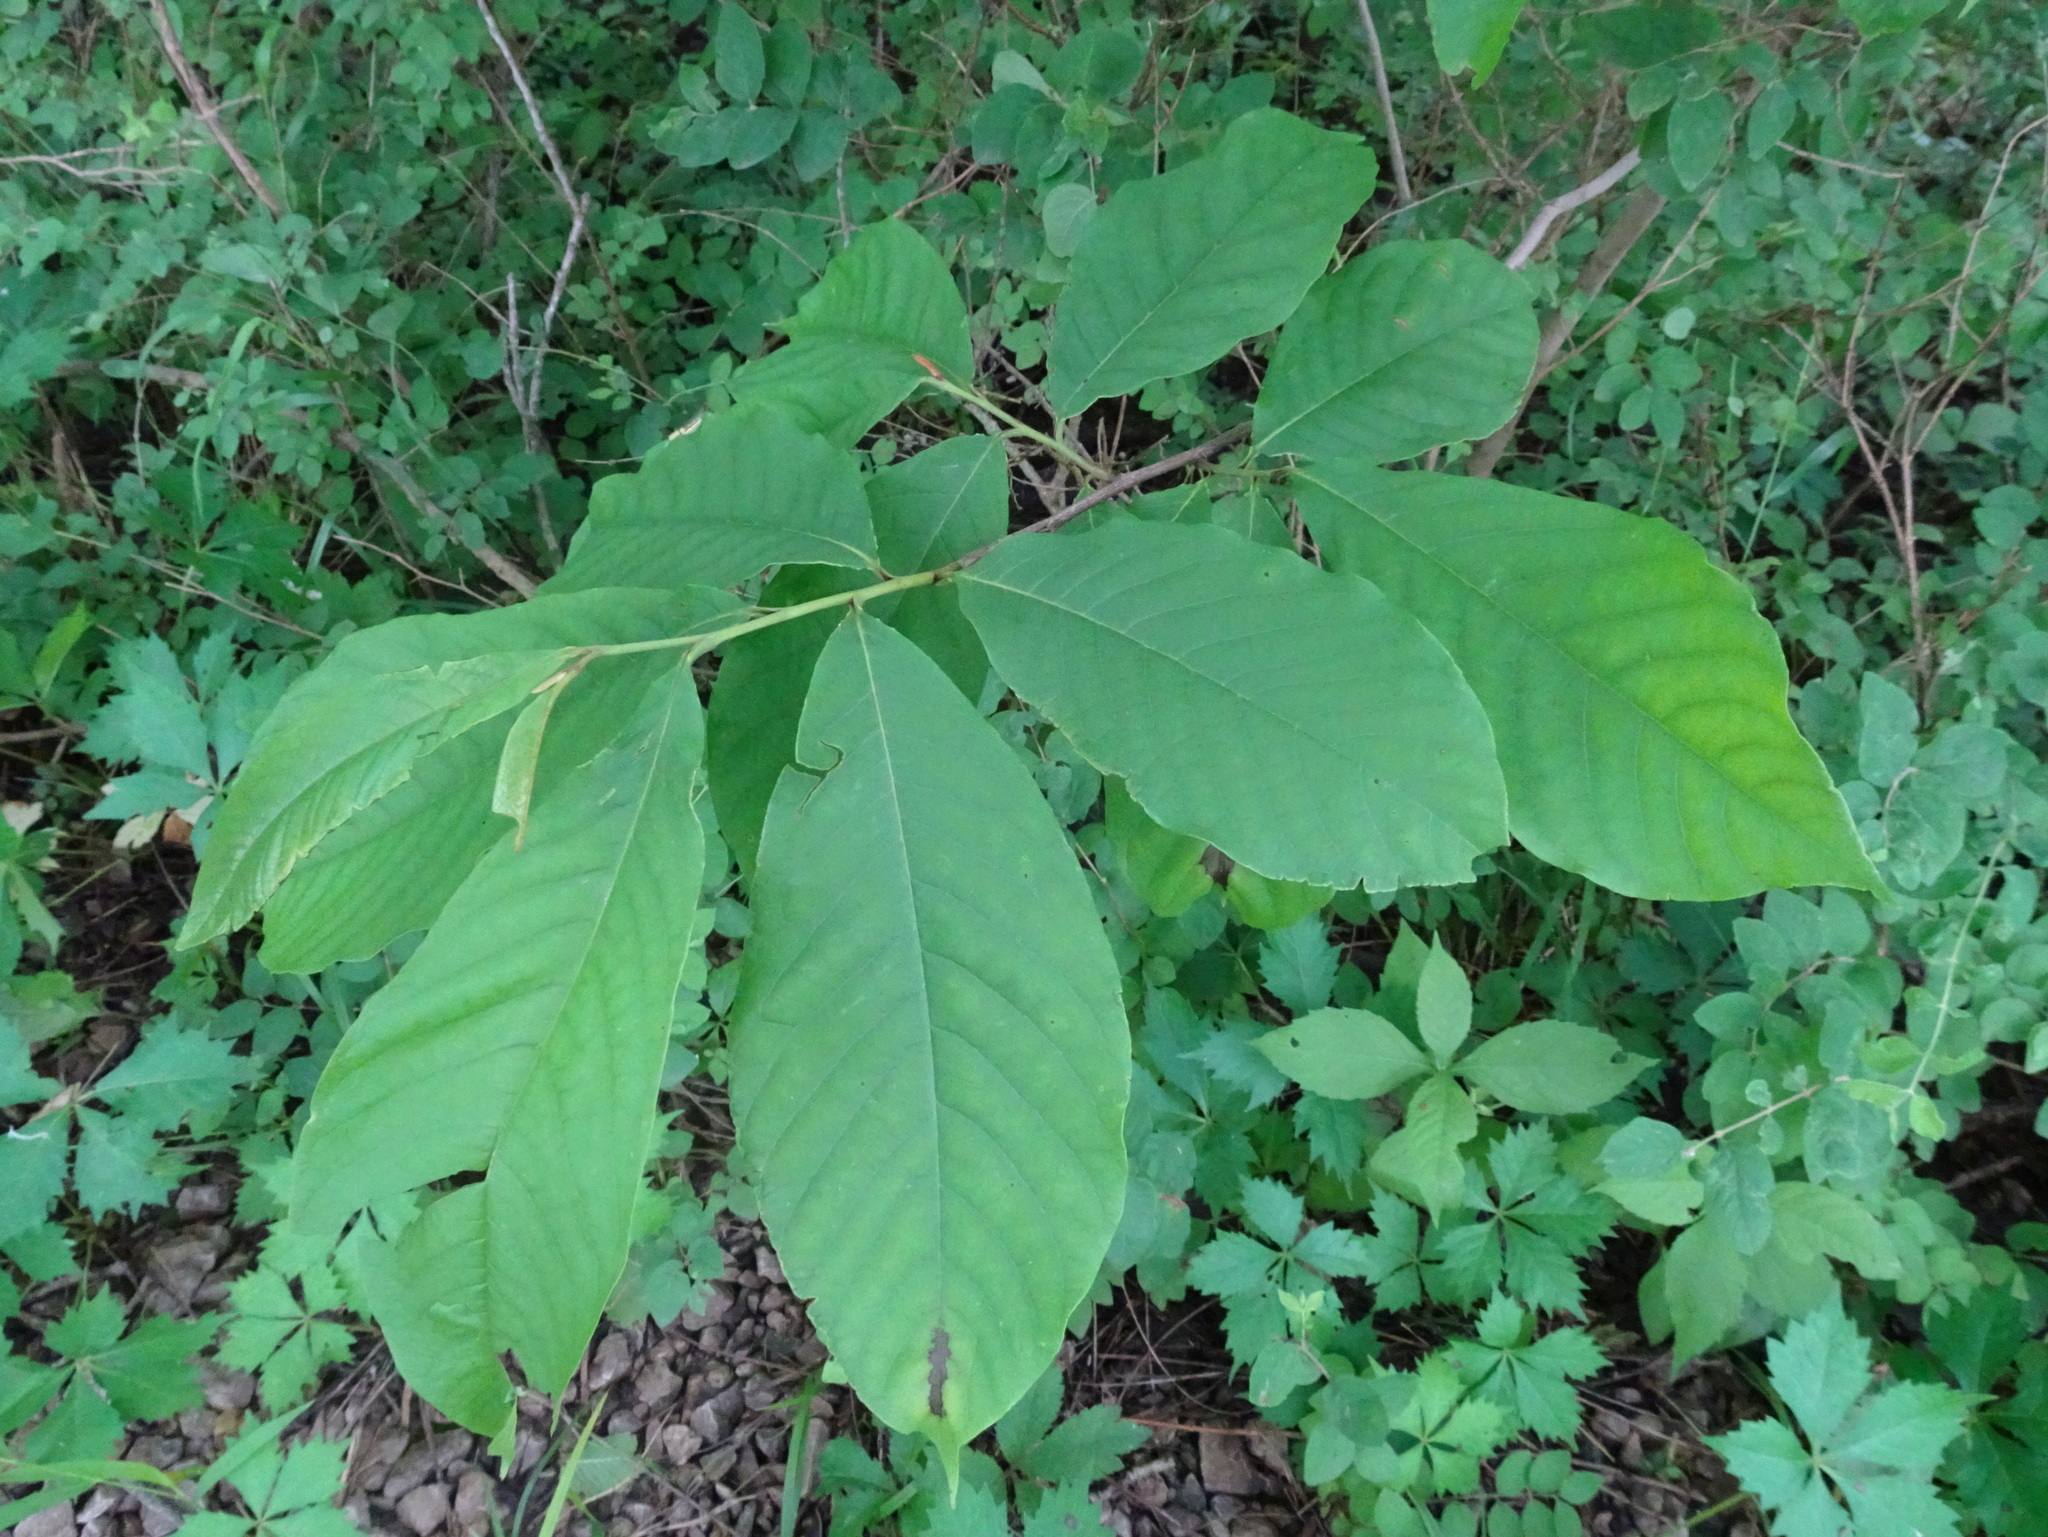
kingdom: Plantae
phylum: Tracheophyta
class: Magnoliopsida
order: Magnoliales
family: Annonaceae
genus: Asimina
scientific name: Asimina triloba
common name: Dog-banana
